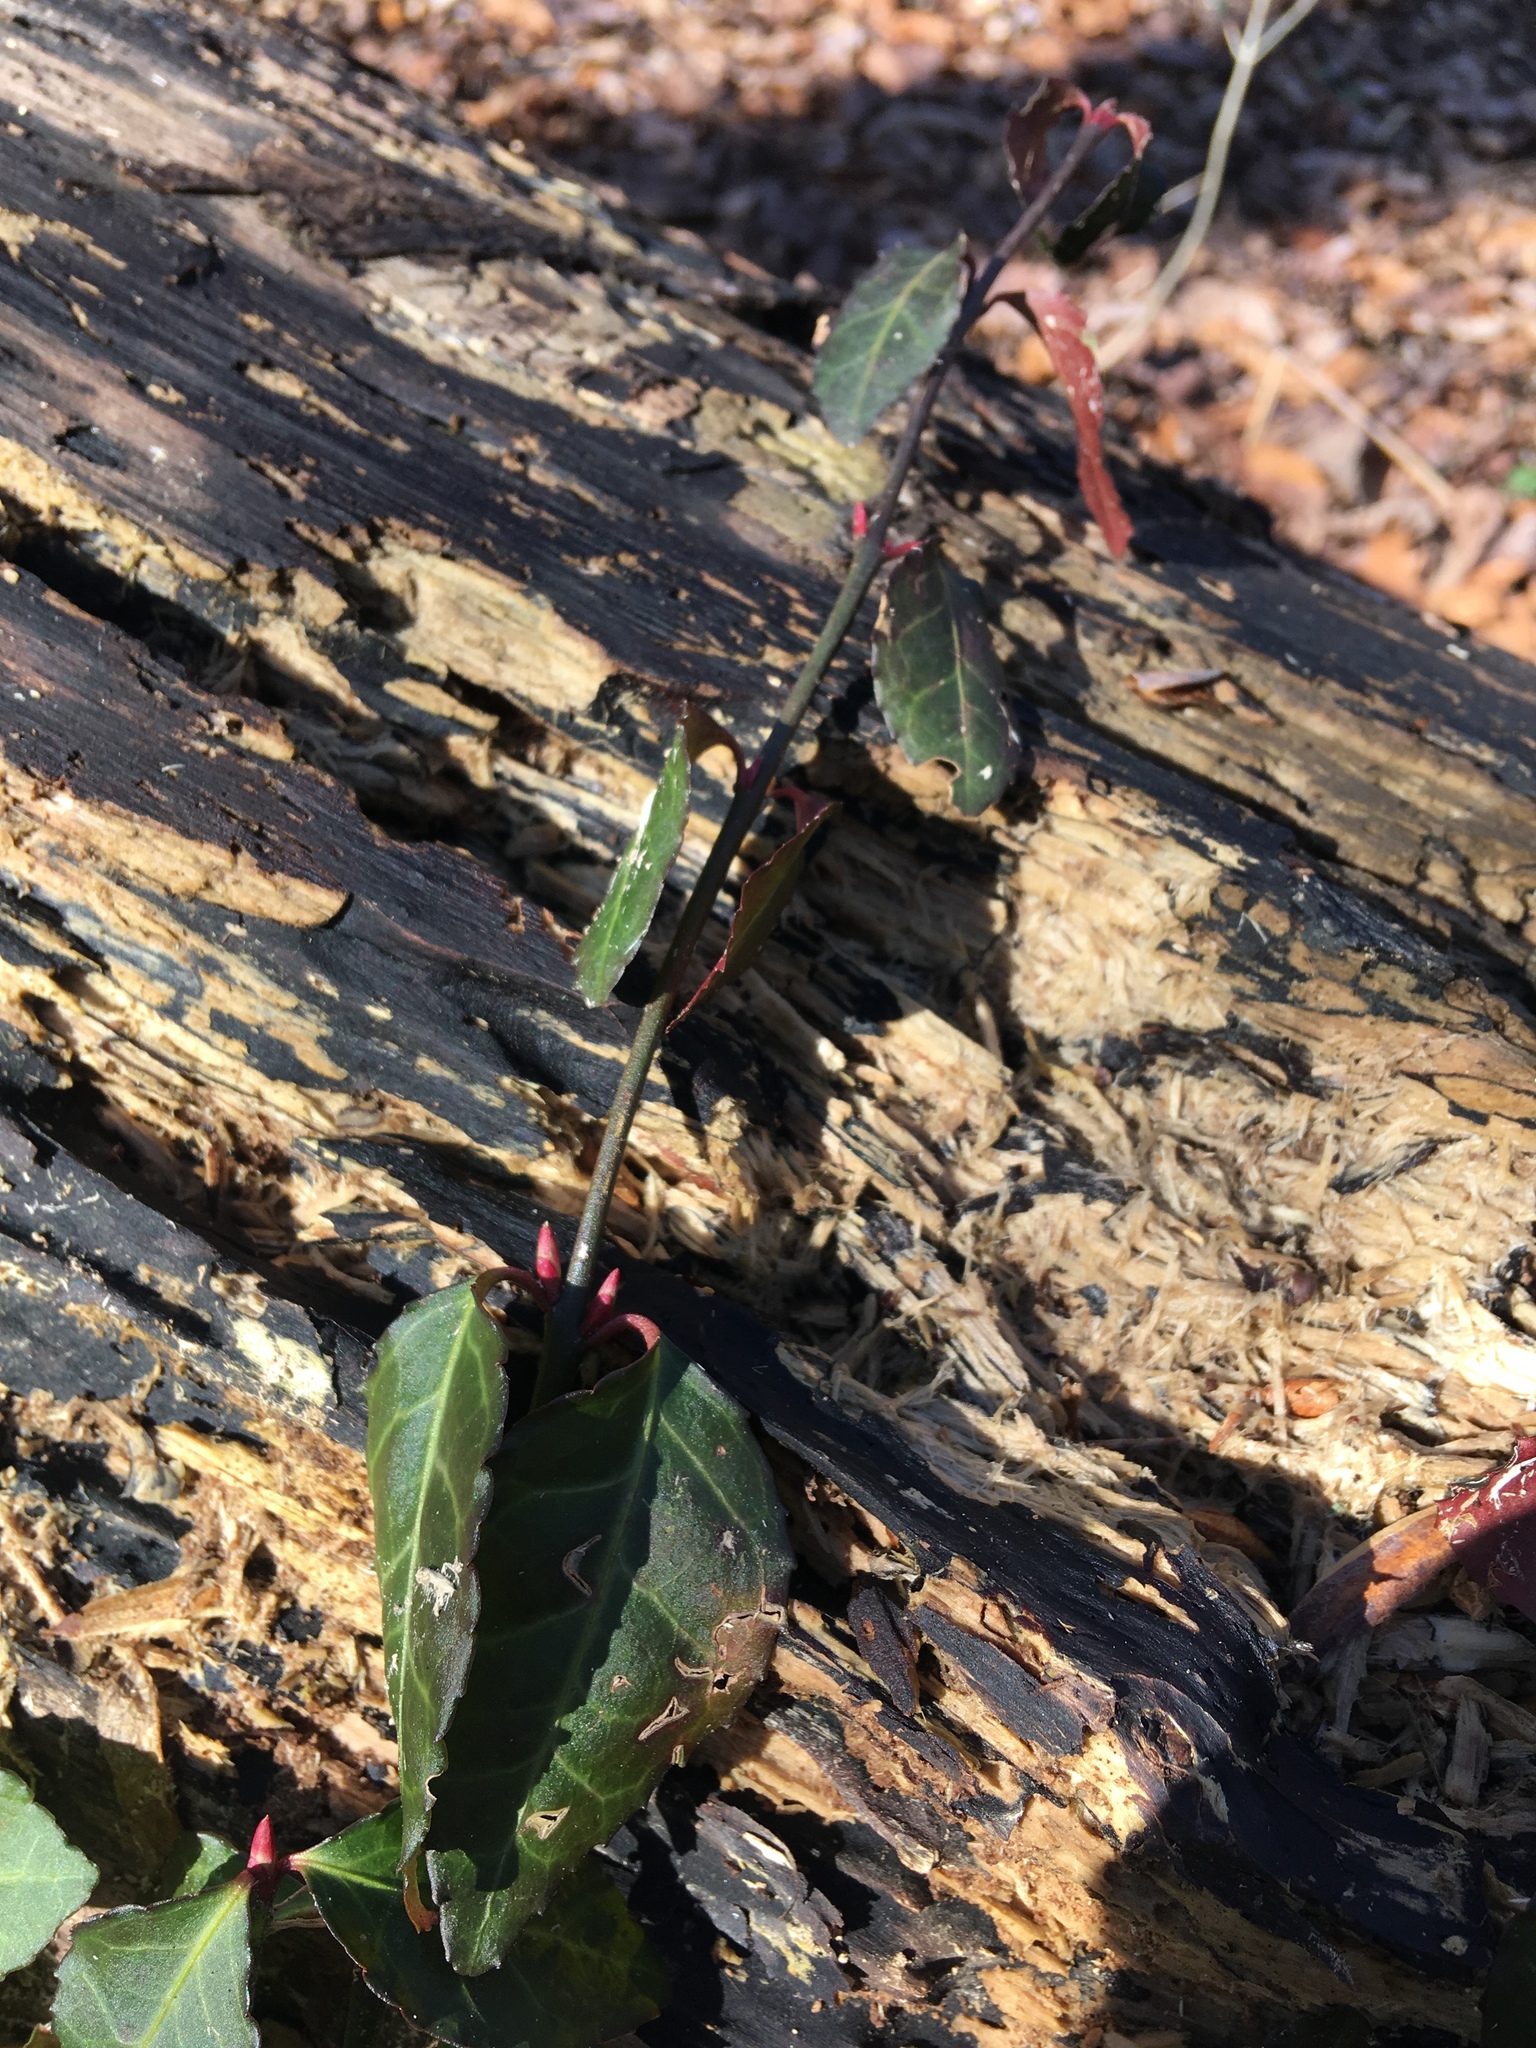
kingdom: Plantae
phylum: Tracheophyta
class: Magnoliopsida
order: Celastrales
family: Celastraceae
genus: Euonymus
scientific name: Euonymus fortunei
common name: Climbing euonymus
